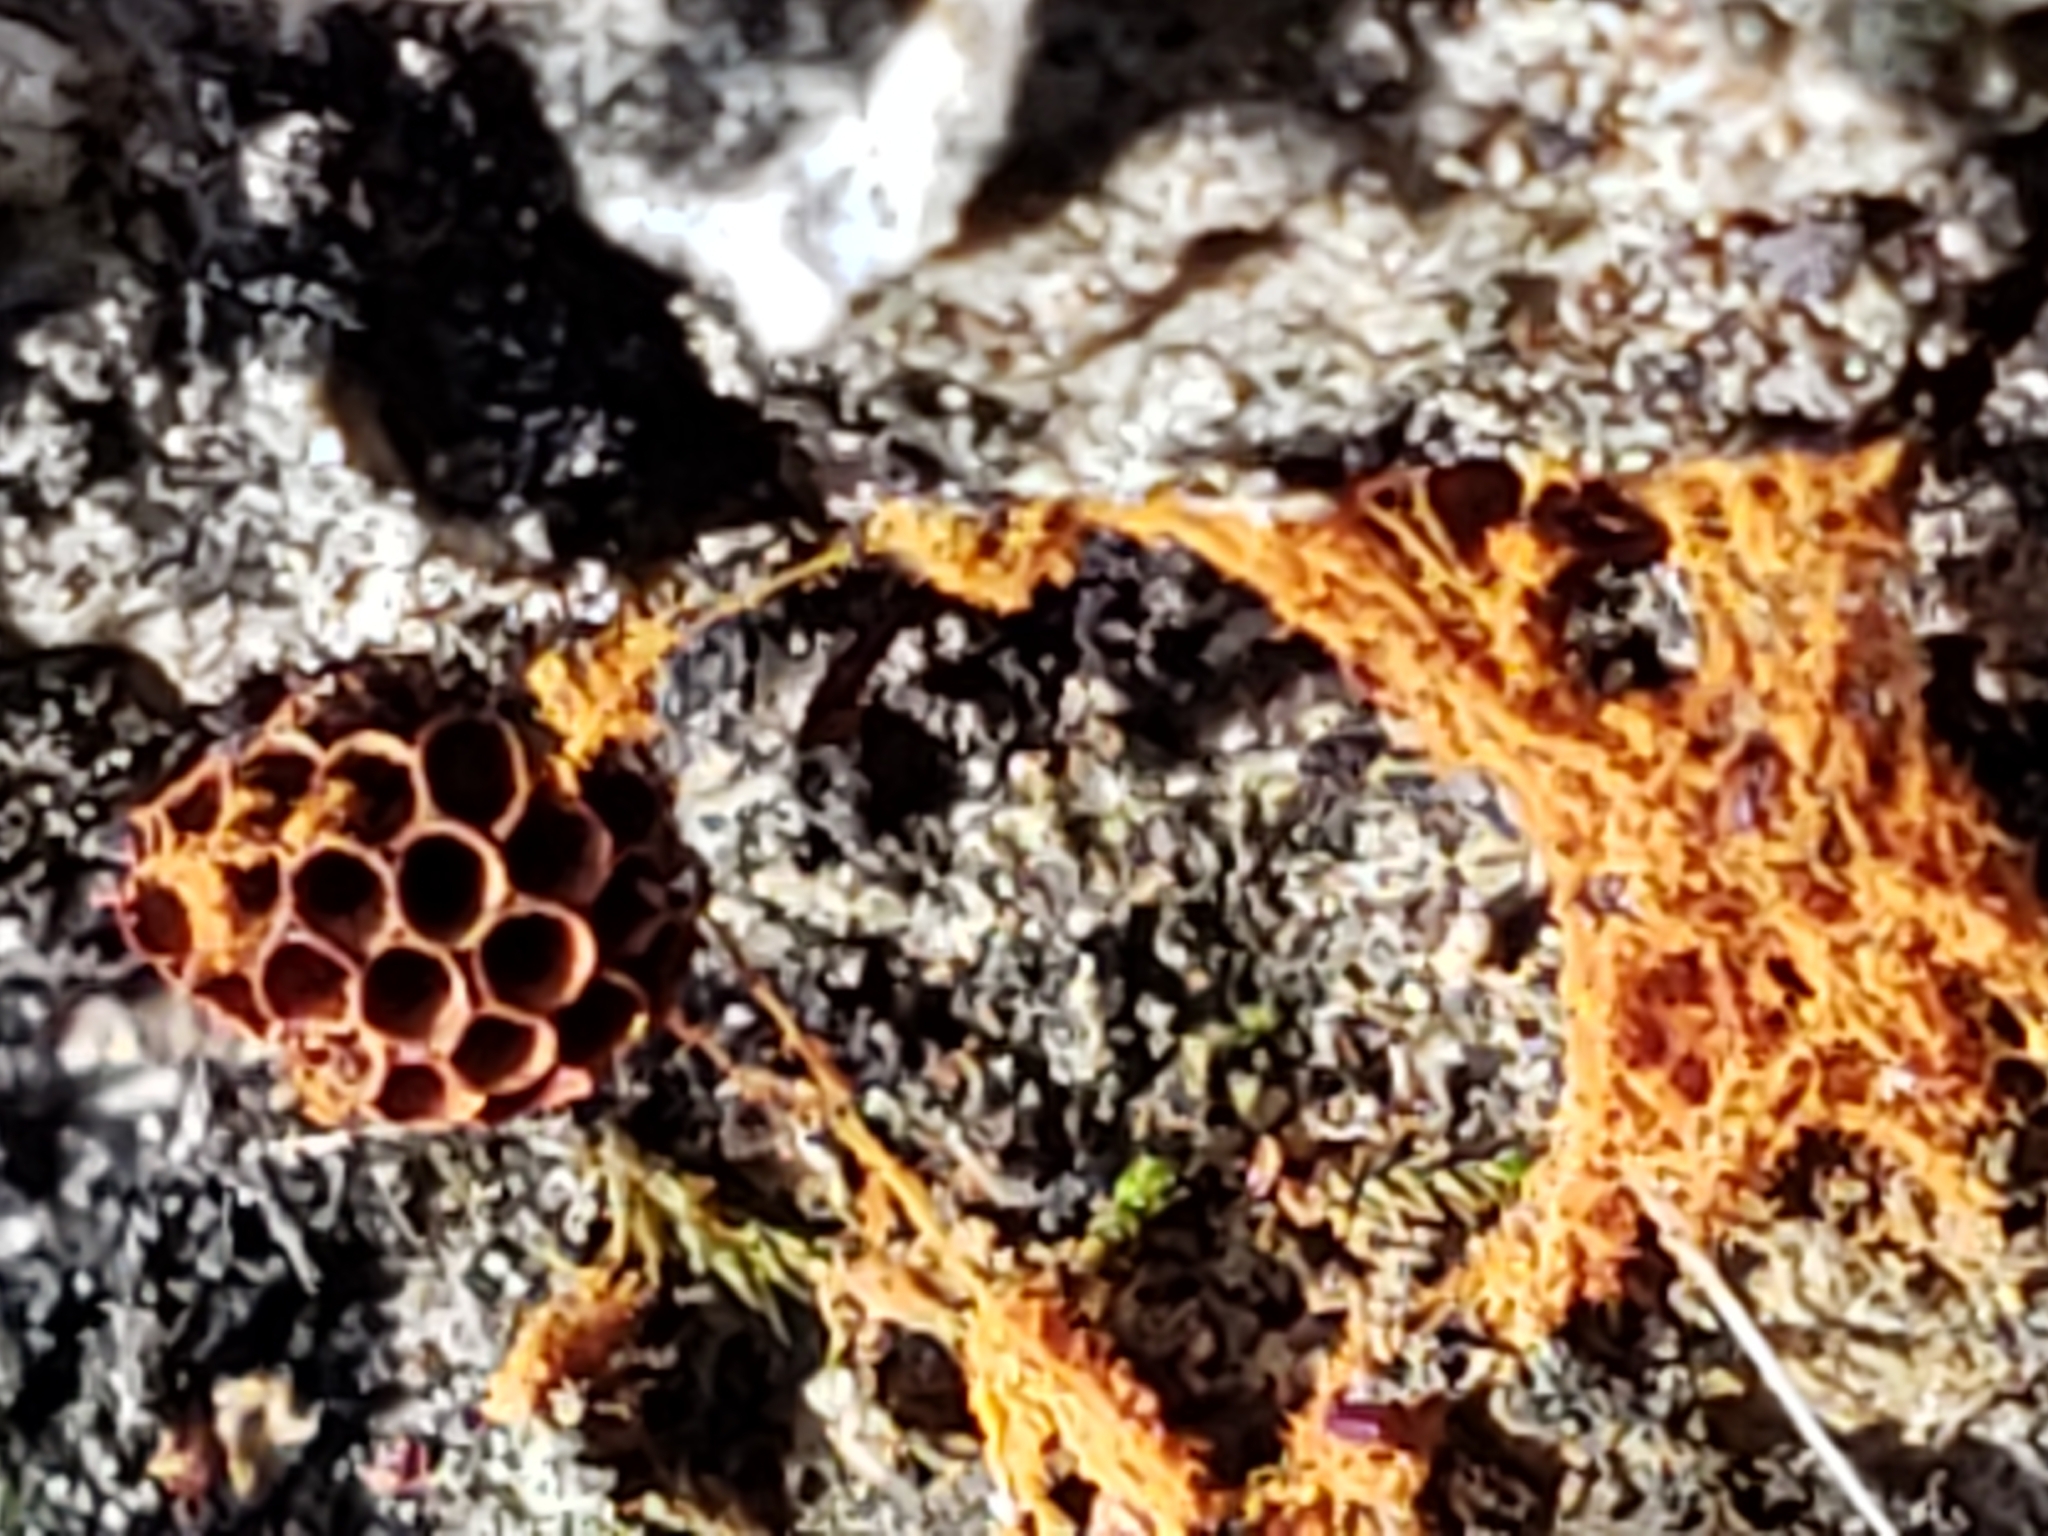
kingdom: Protozoa
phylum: Mycetozoa
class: Myxomycetes
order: Trichiales
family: Trichiaceae
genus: Metatrichia
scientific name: Metatrichia vesparia
